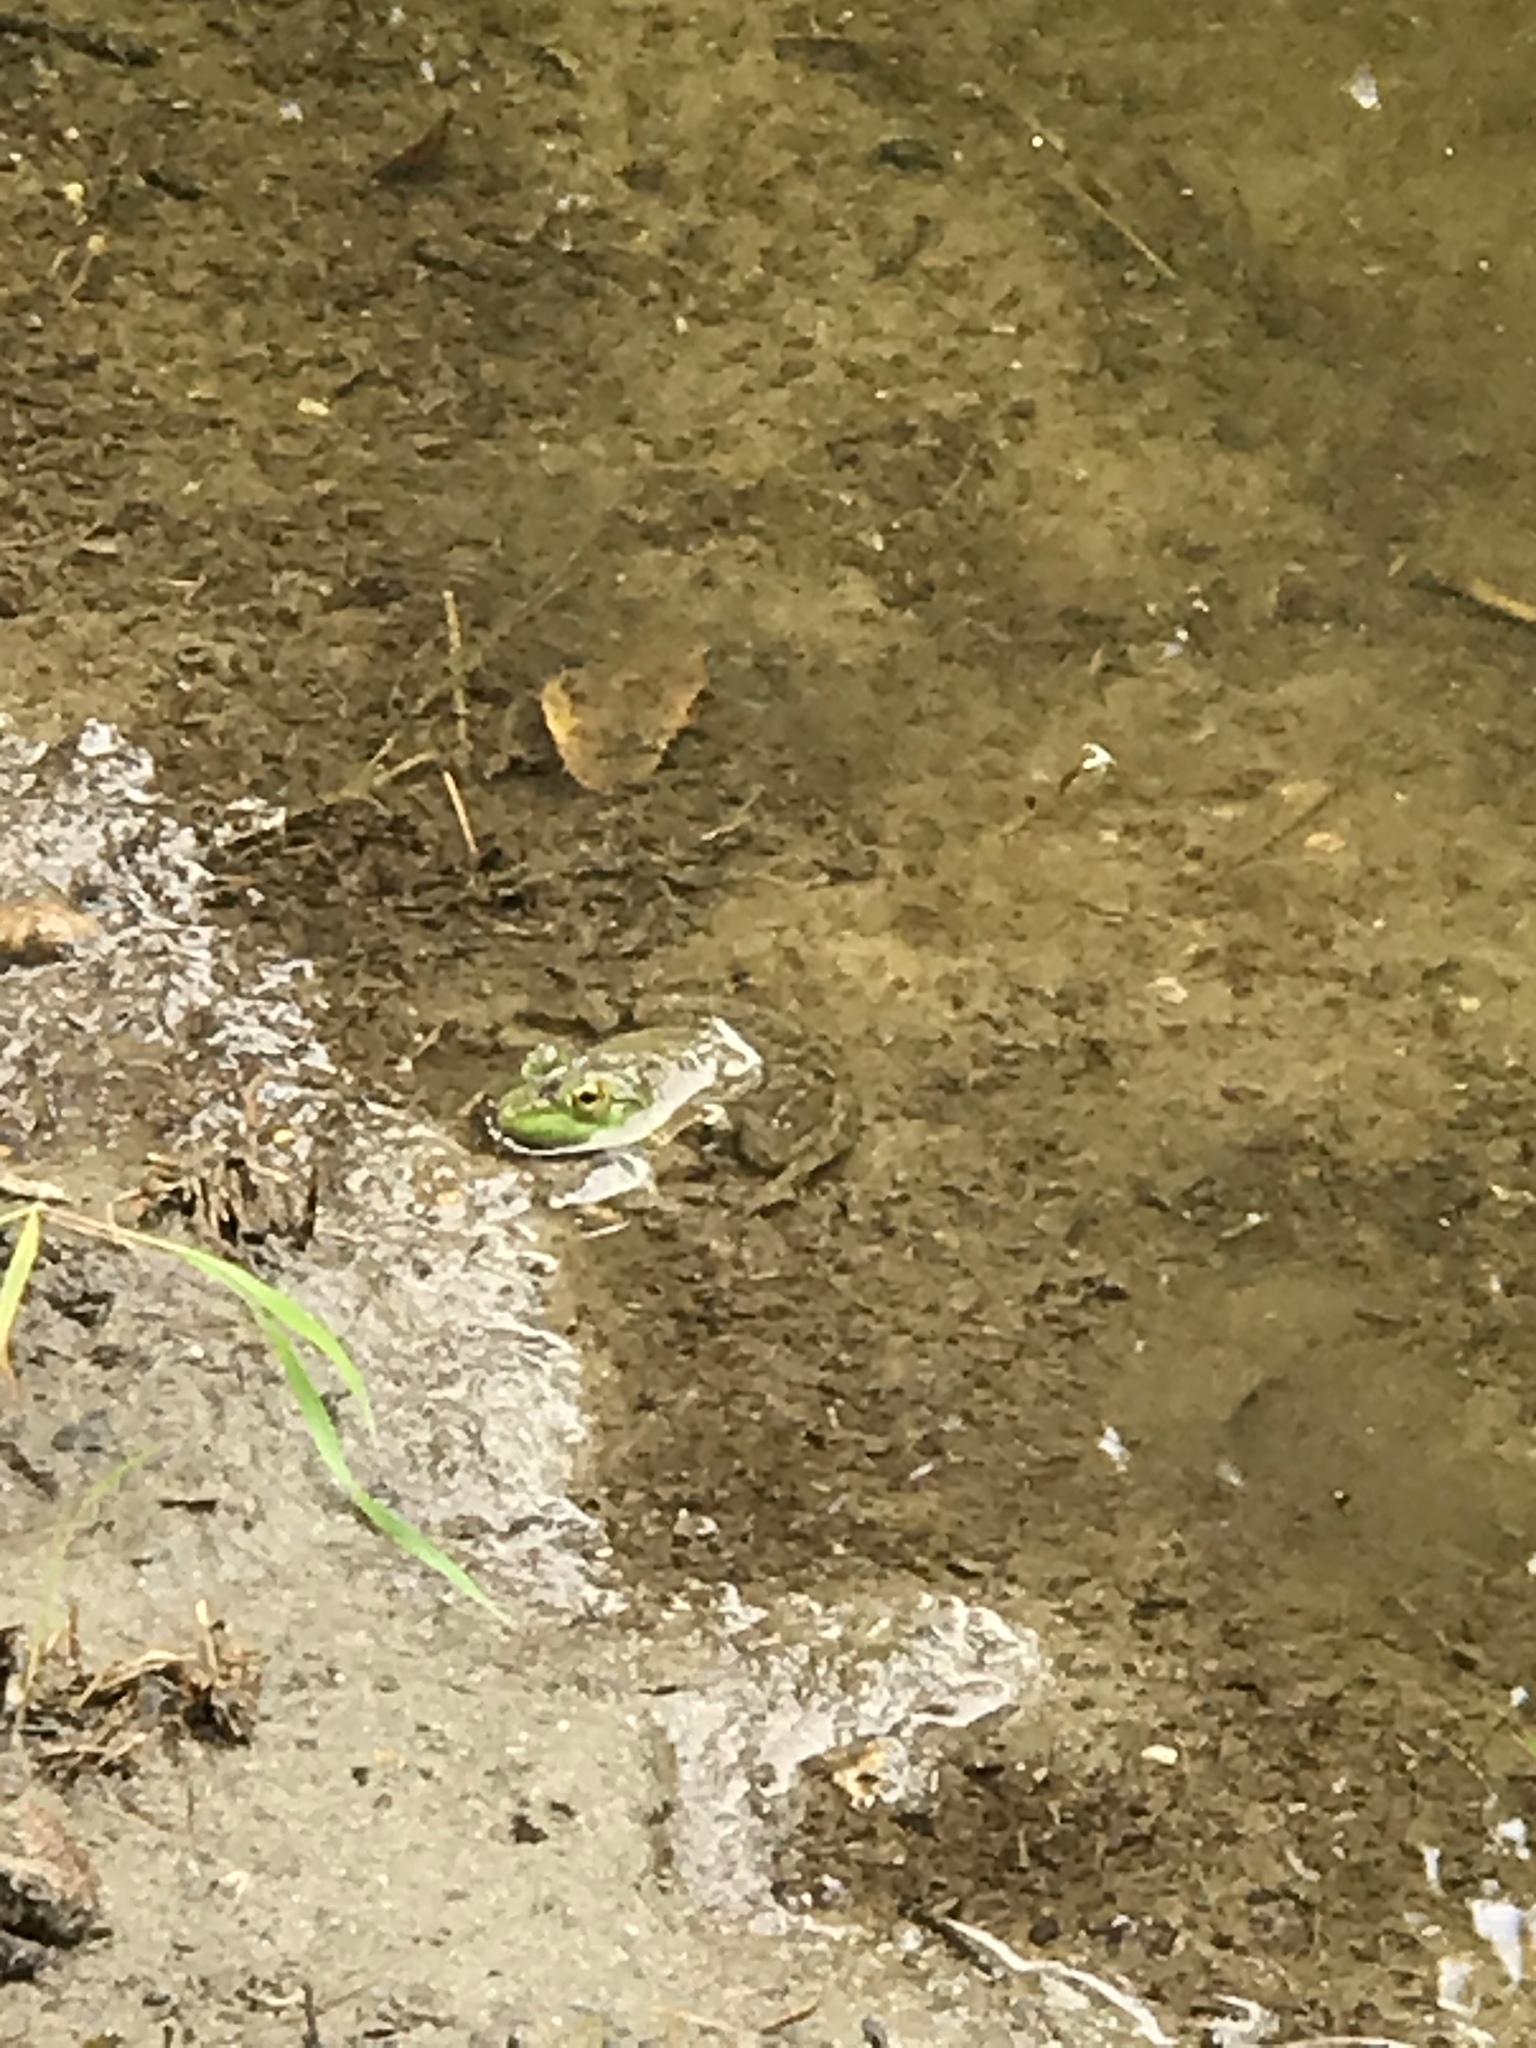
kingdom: Animalia
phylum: Chordata
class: Amphibia
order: Anura
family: Ranidae
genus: Lithobates
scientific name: Lithobates catesbeianus
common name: American bullfrog
